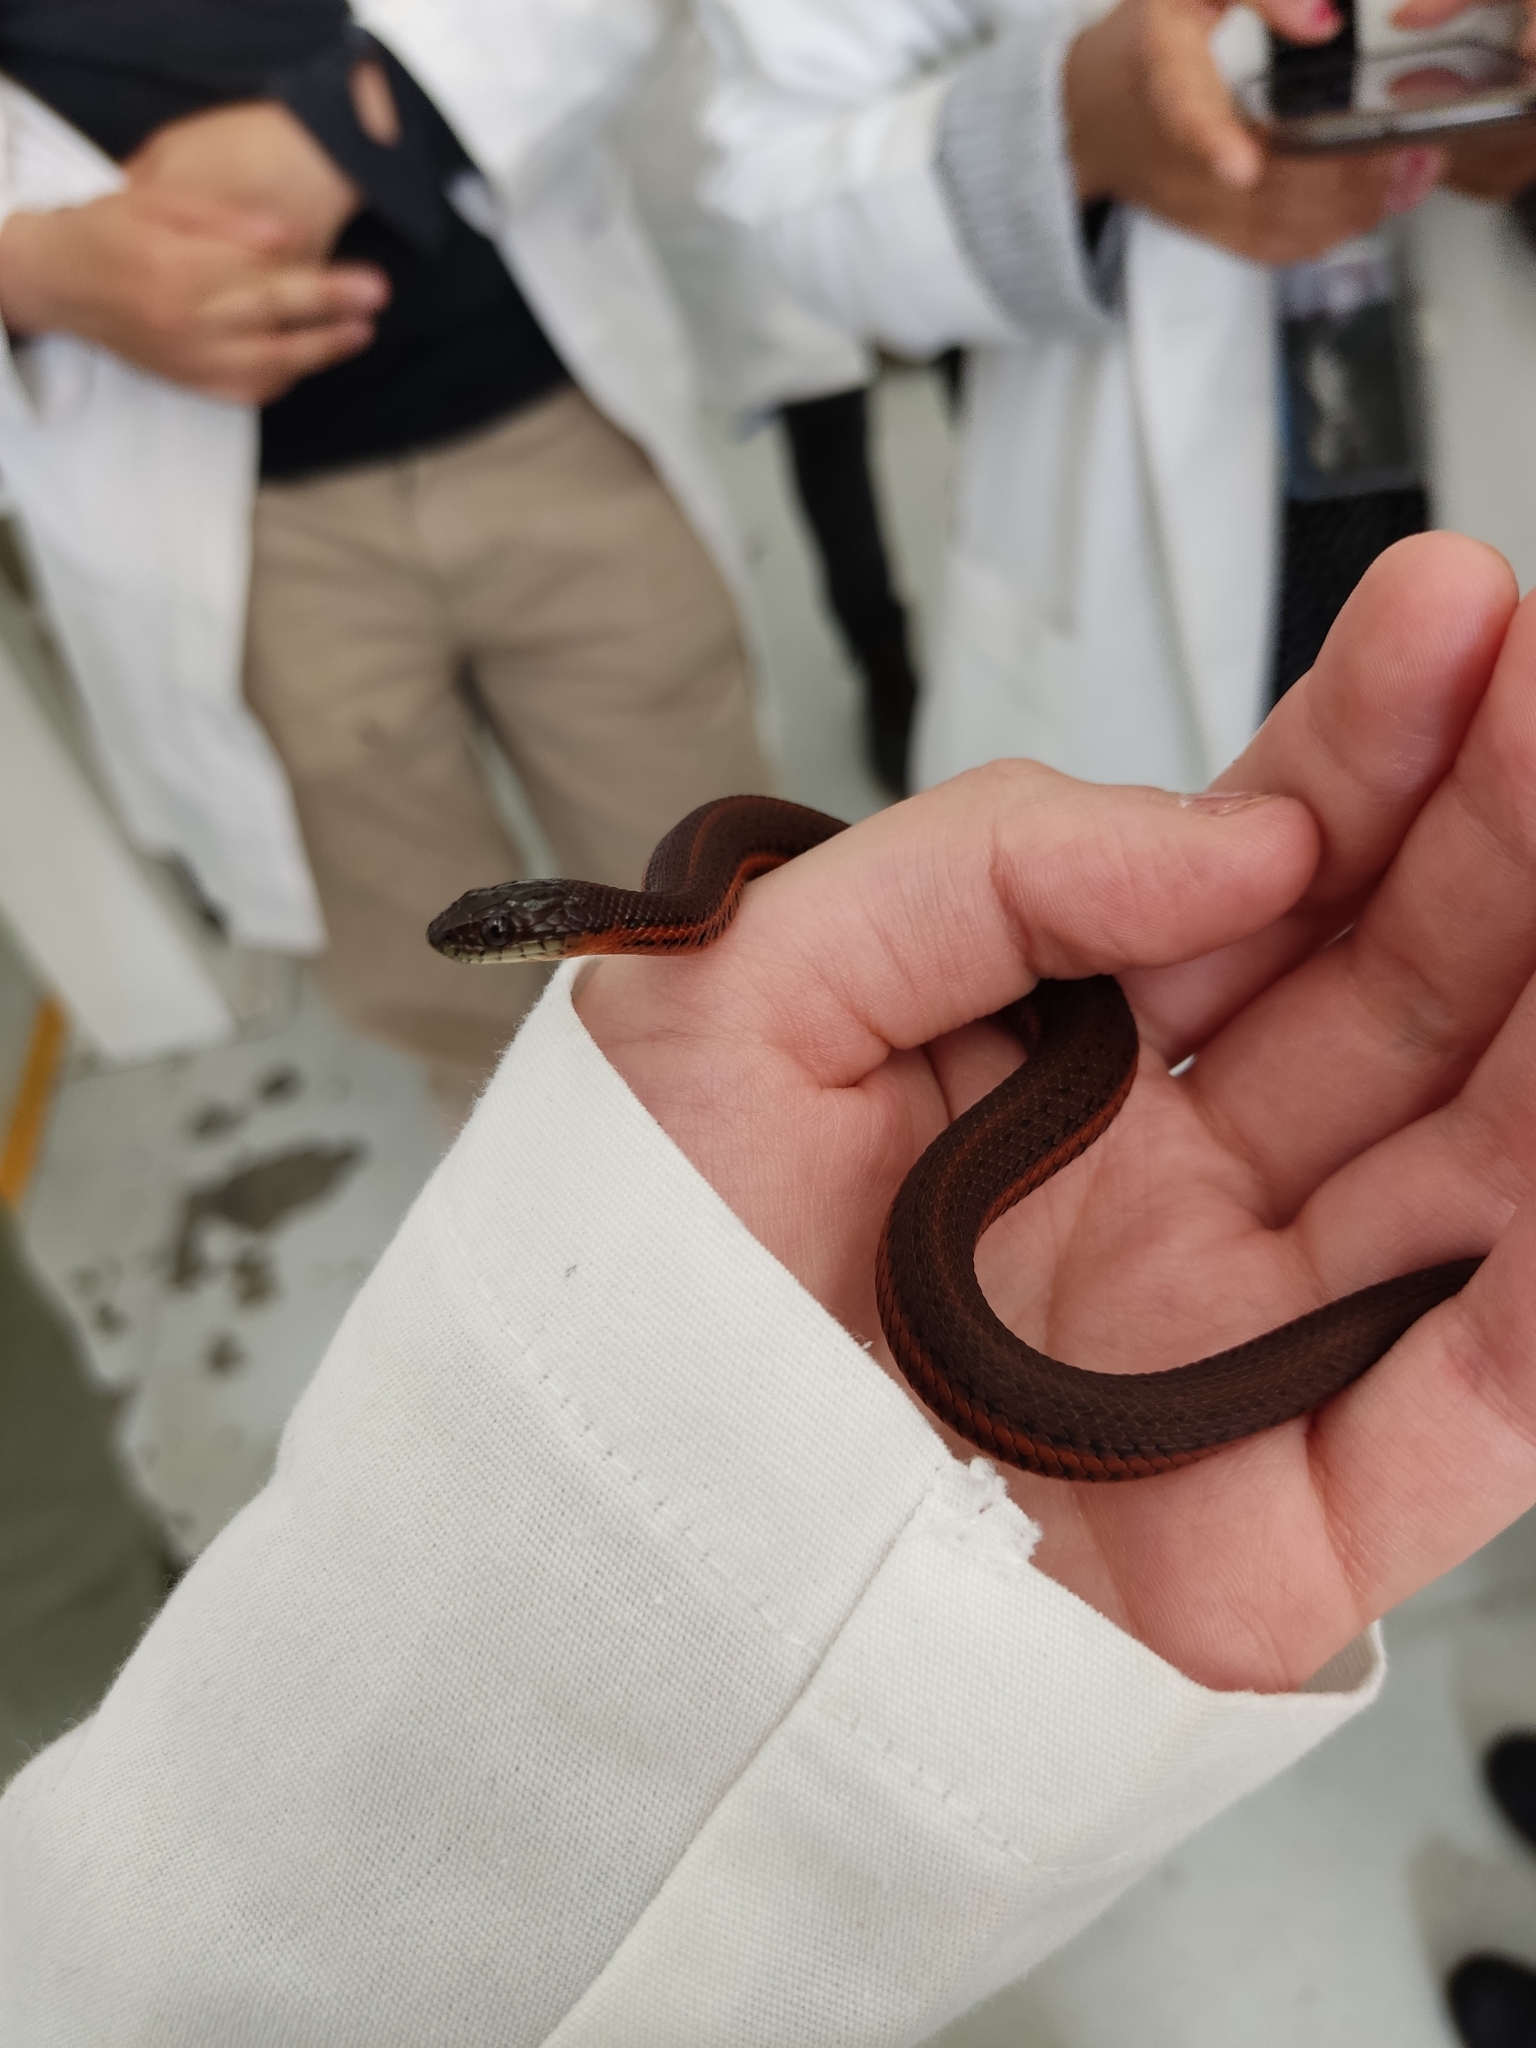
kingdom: Animalia
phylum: Chordata
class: Squamata
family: Colubridae
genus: Thamnophis
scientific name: Thamnophis melanogaster
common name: Blackbelly garter snake
